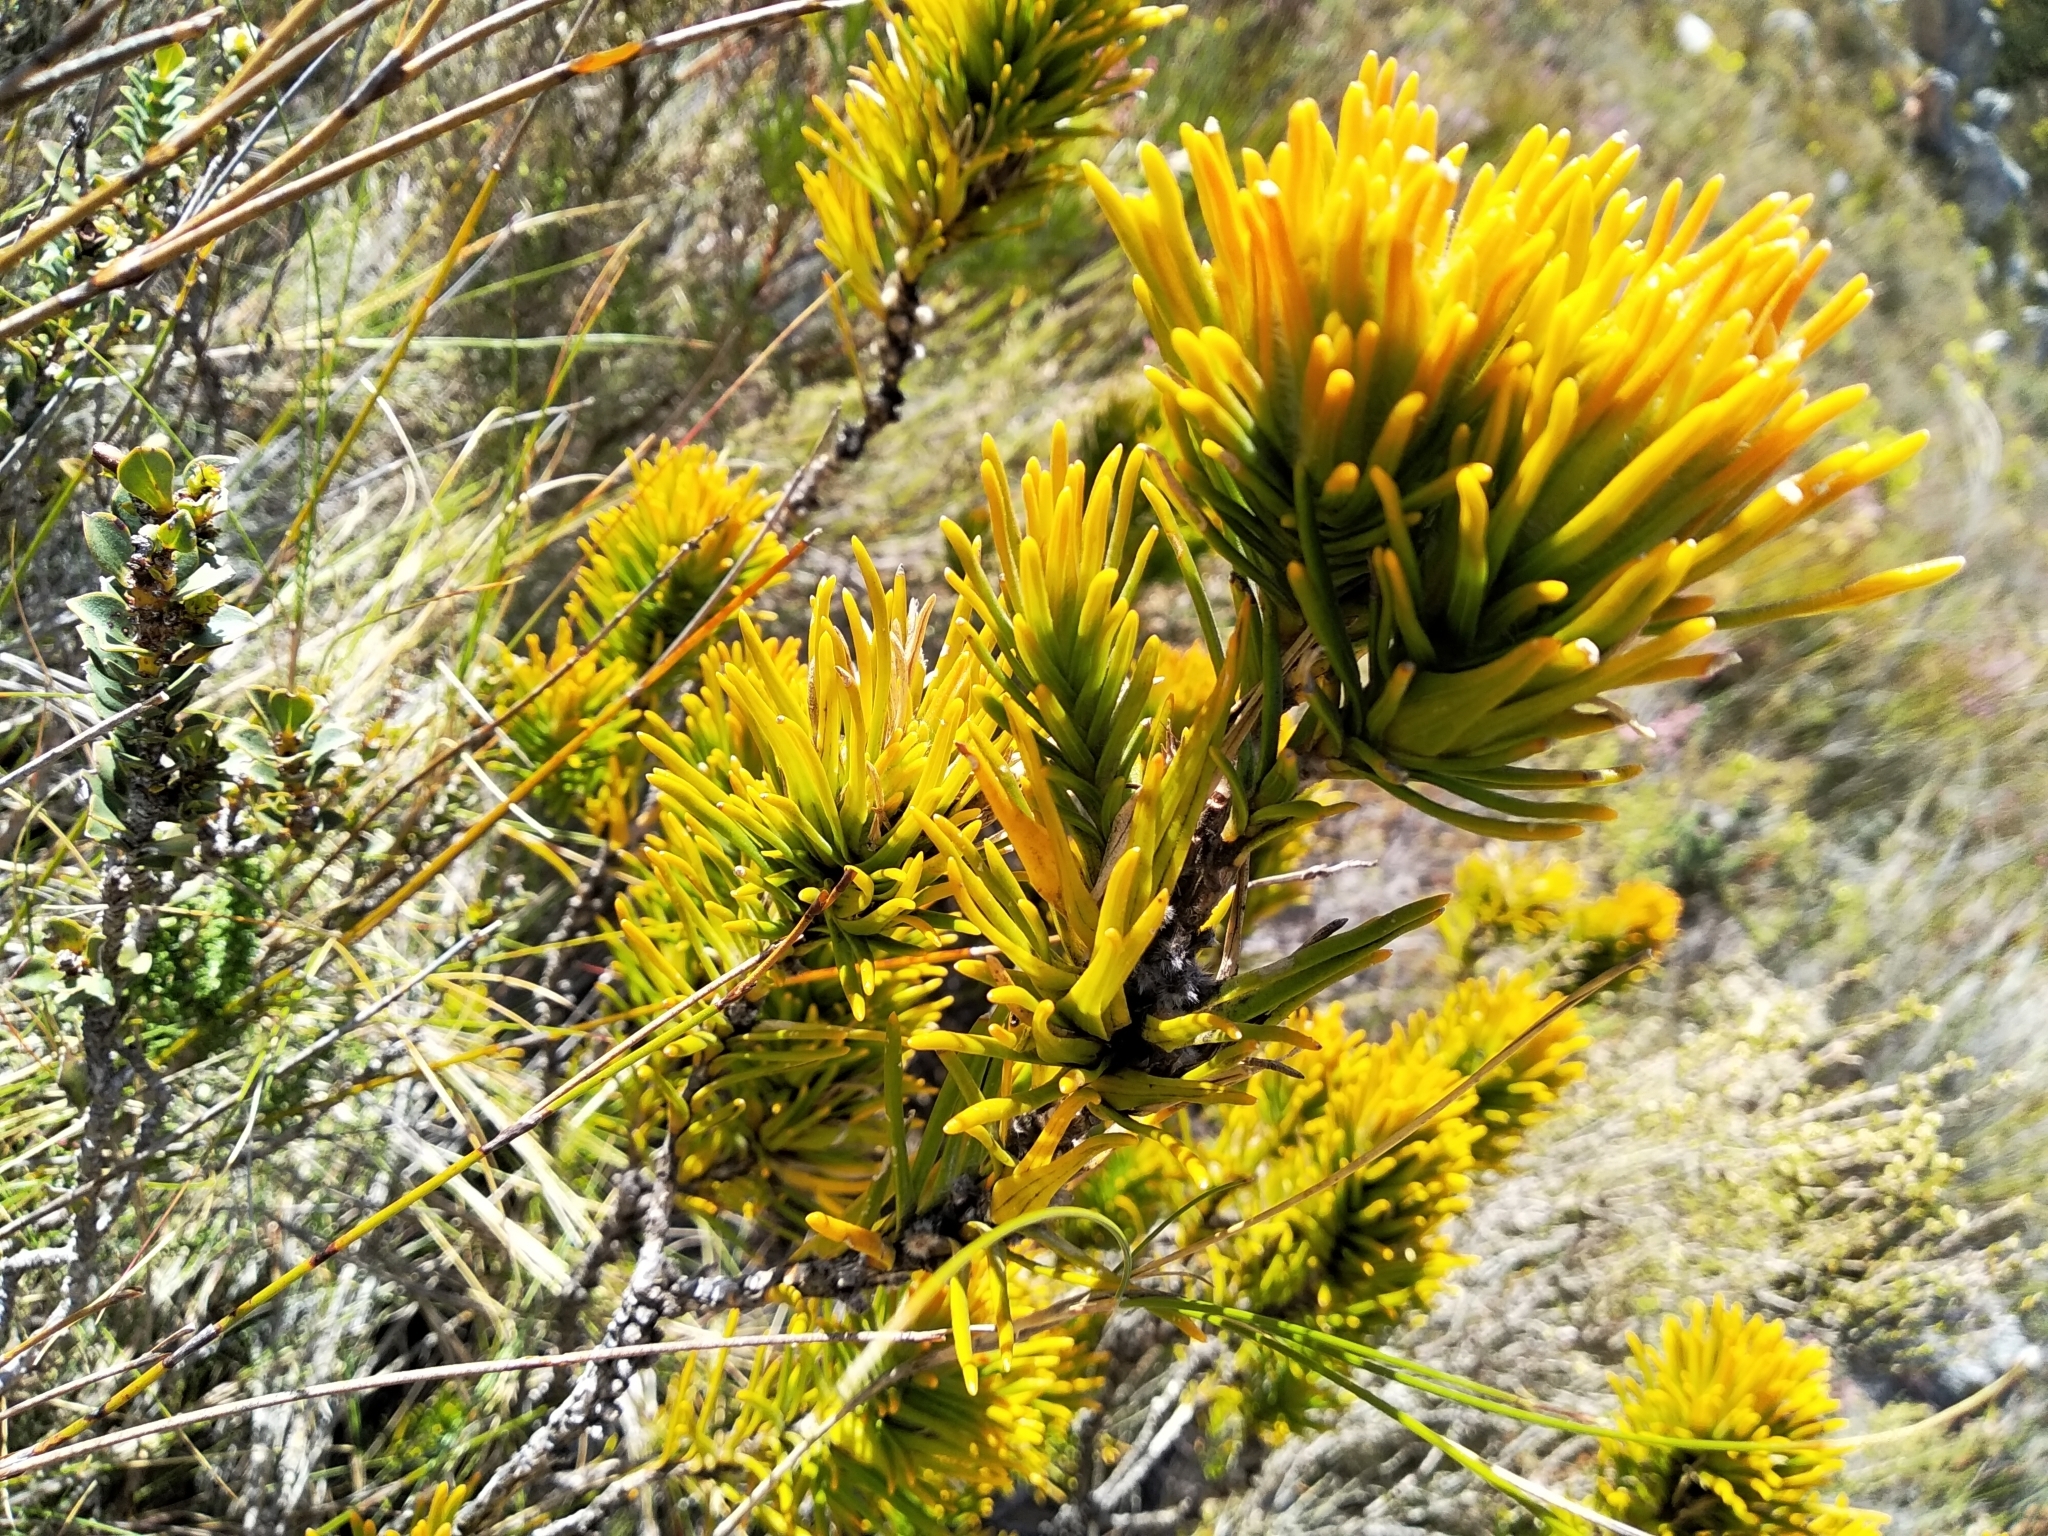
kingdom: Plantae
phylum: Tracheophyta
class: Magnoliopsida
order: Lamiales
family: Stilbaceae
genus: Retzia
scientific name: Retzia capensis
